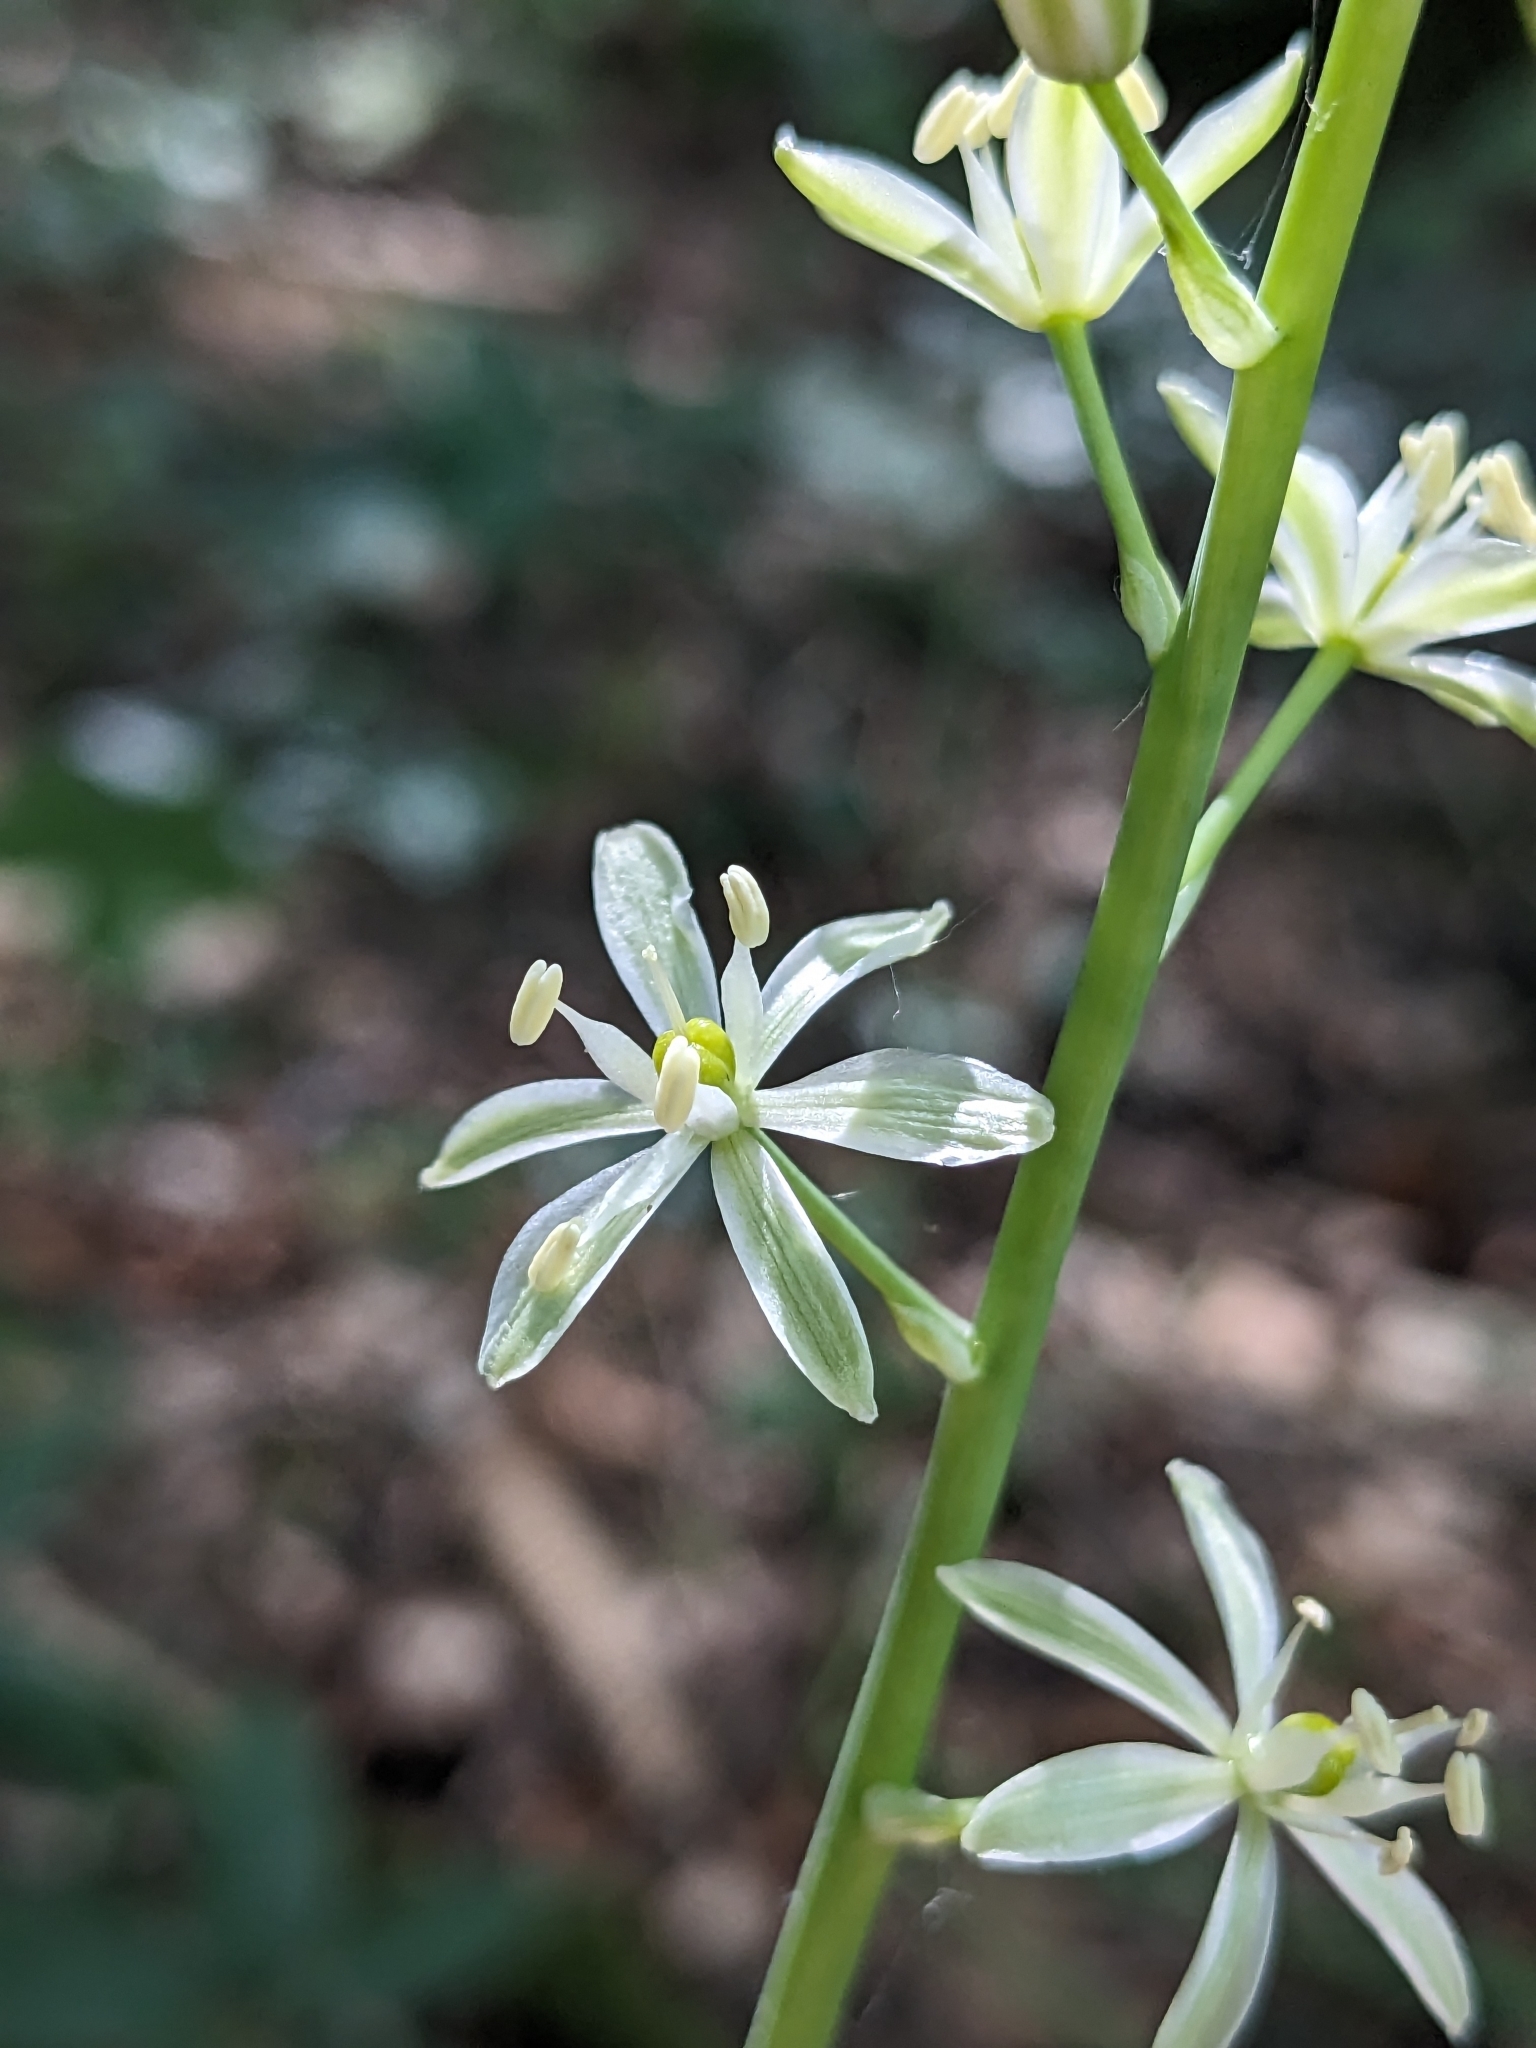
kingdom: Plantae
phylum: Tracheophyta
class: Liliopsida
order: Asparagales
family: Asparagaceae
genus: Ornithogalum
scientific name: Ornithogalum pyrenaicum
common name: Spiked star-of-bethlehem
